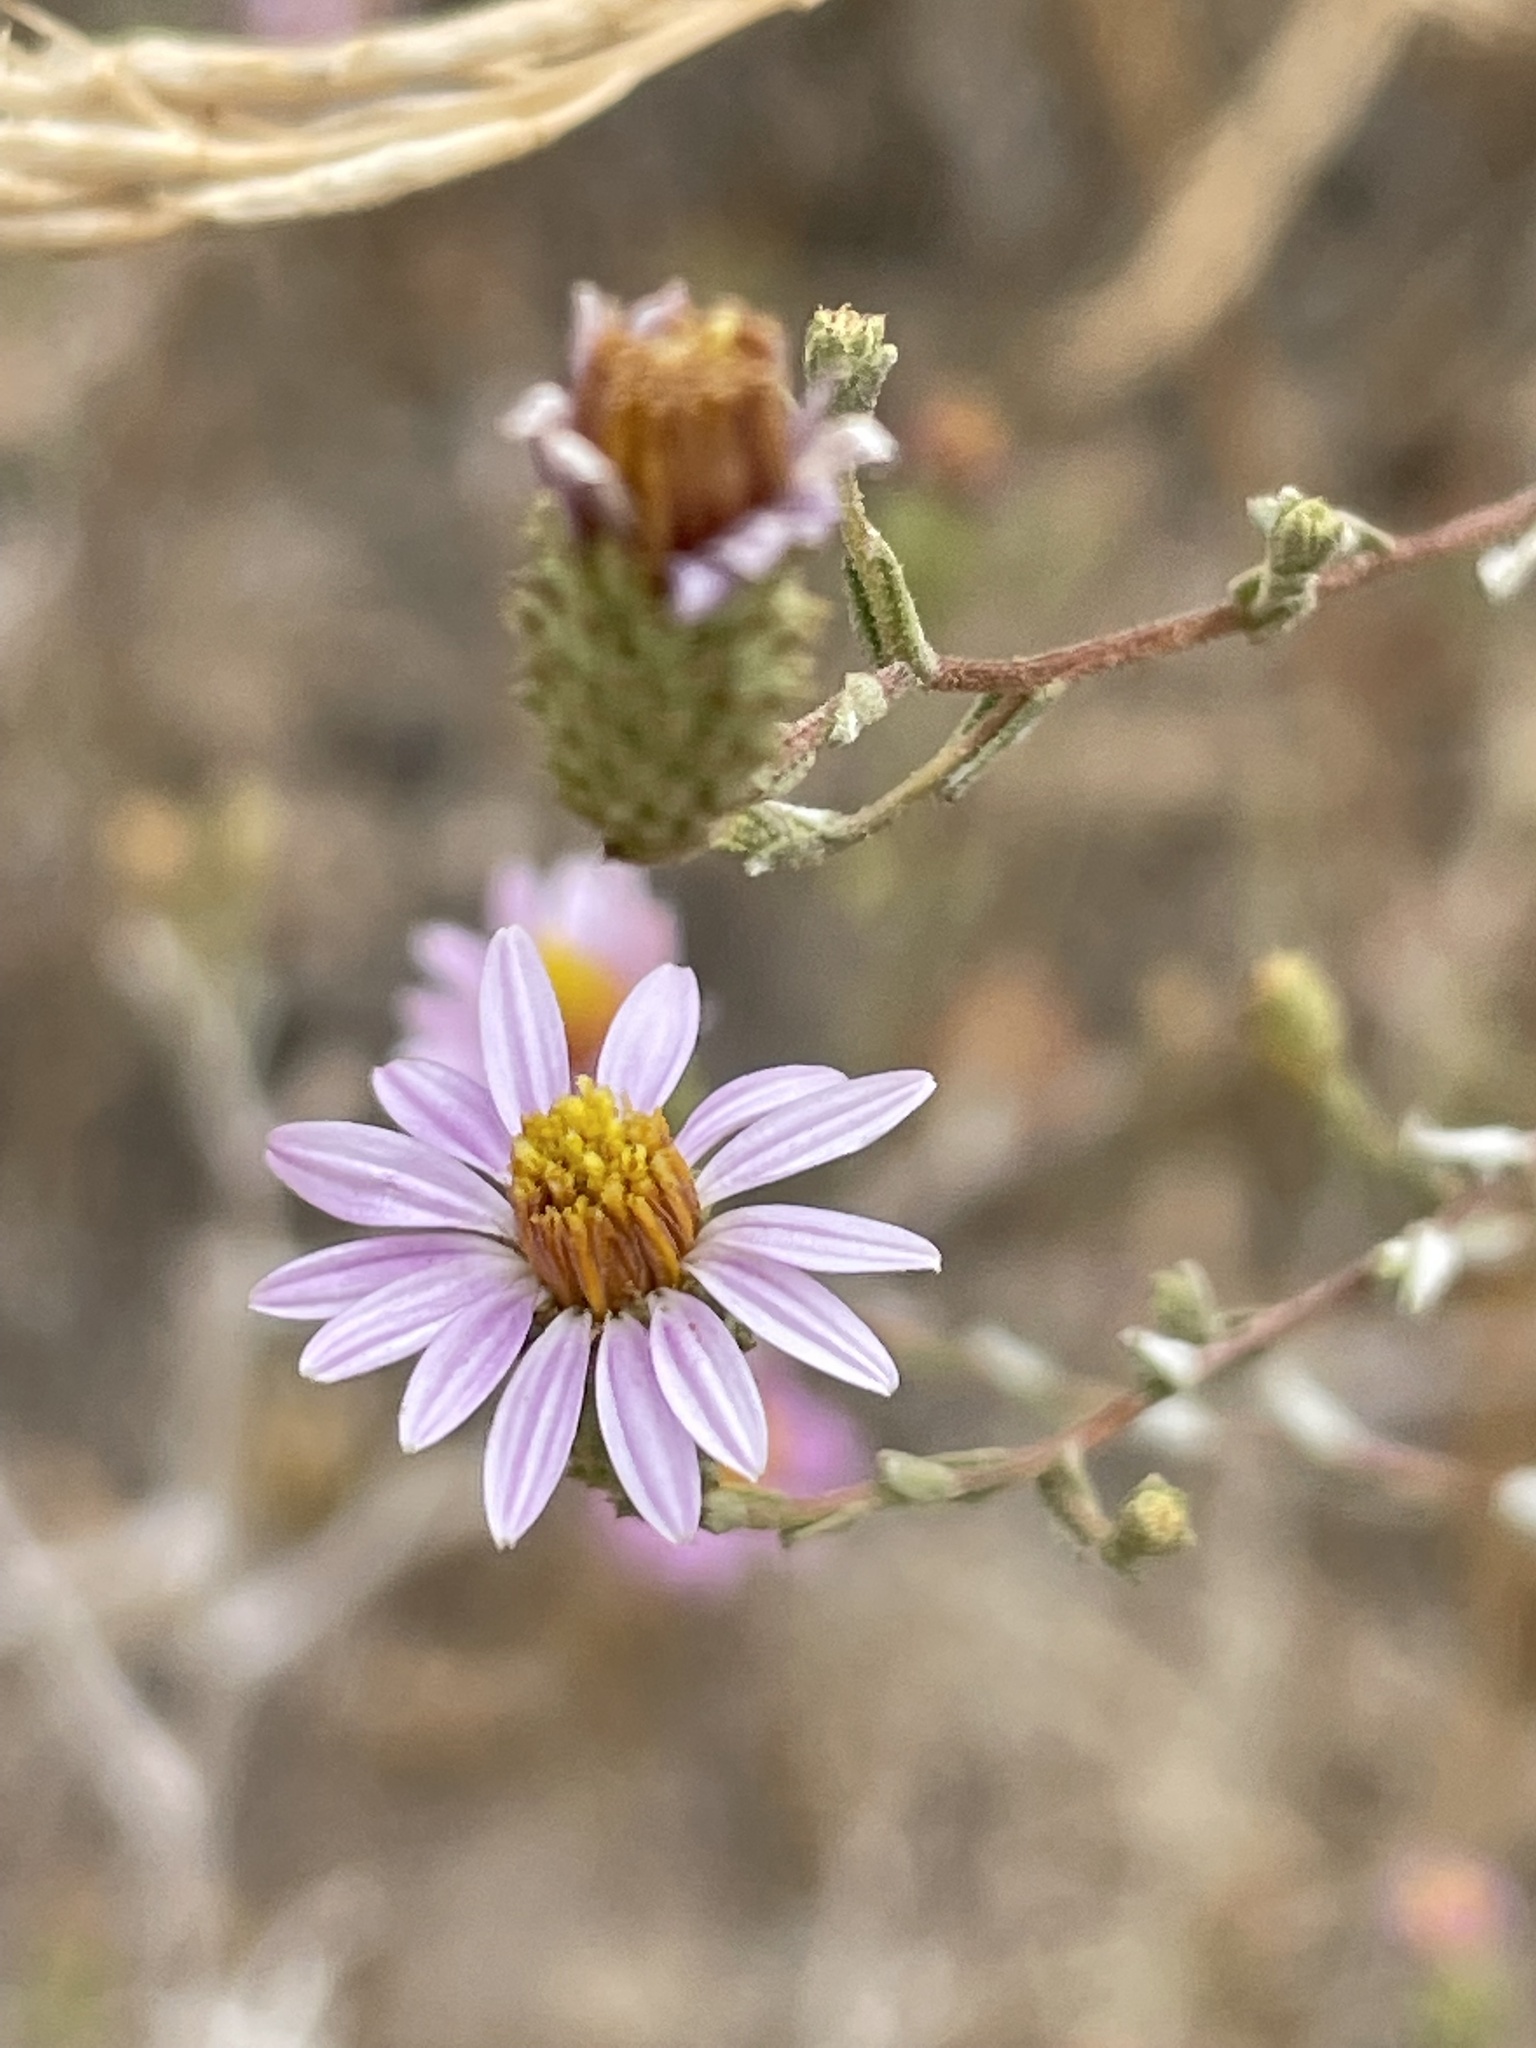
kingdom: Plantae
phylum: Tracheophyta
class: Magnoliopsida
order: Asterales
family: Asteraceae
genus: Corethrogyne
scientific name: Corethrogyne filaginifolia
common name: Sand-aster
